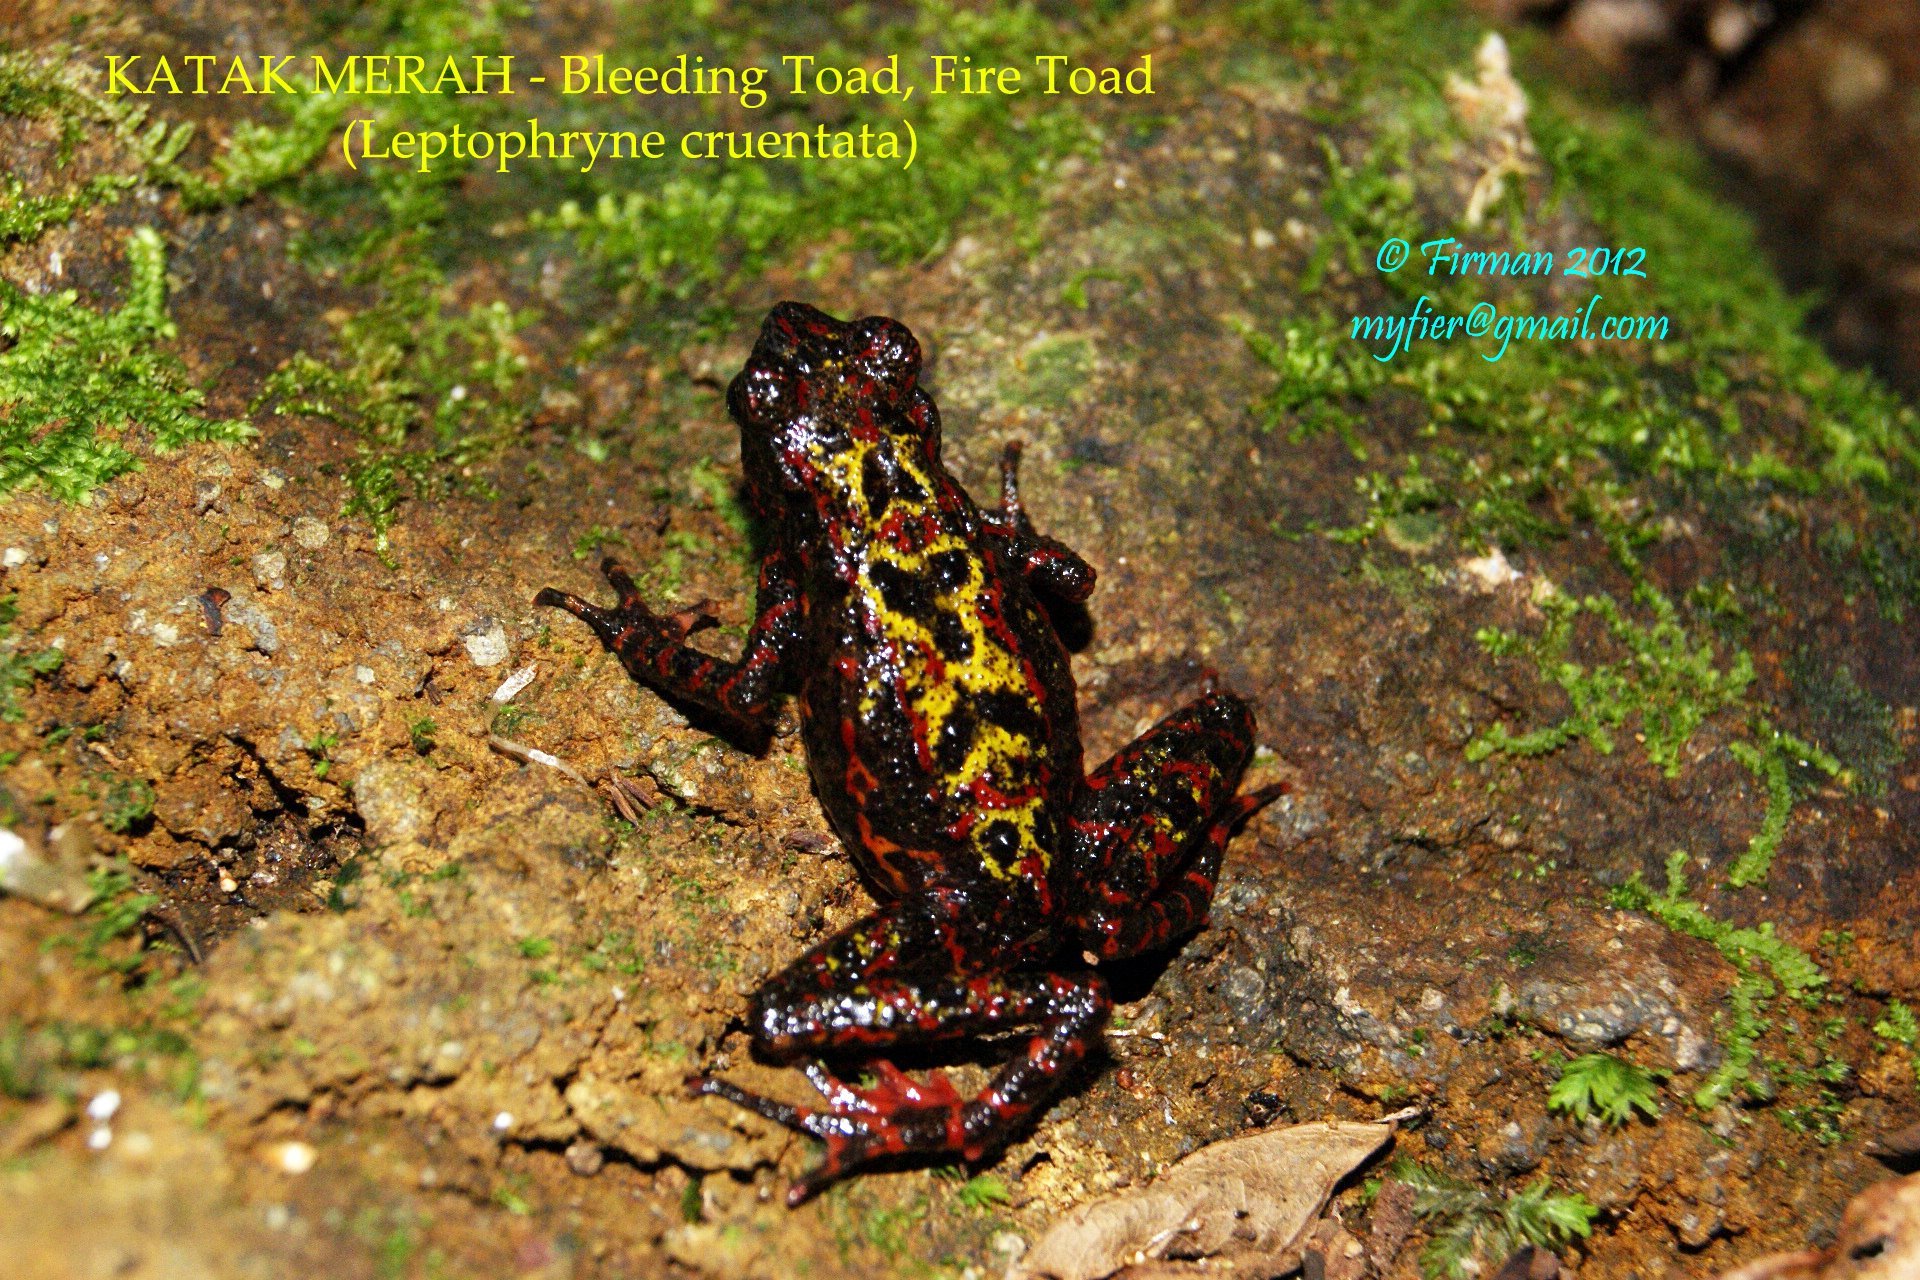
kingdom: Animalia
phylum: Chordata
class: Amphibia
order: Anura
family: Bufonidae
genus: Leptophryne
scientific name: Leptophryne cruentata
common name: Bleeding toad
